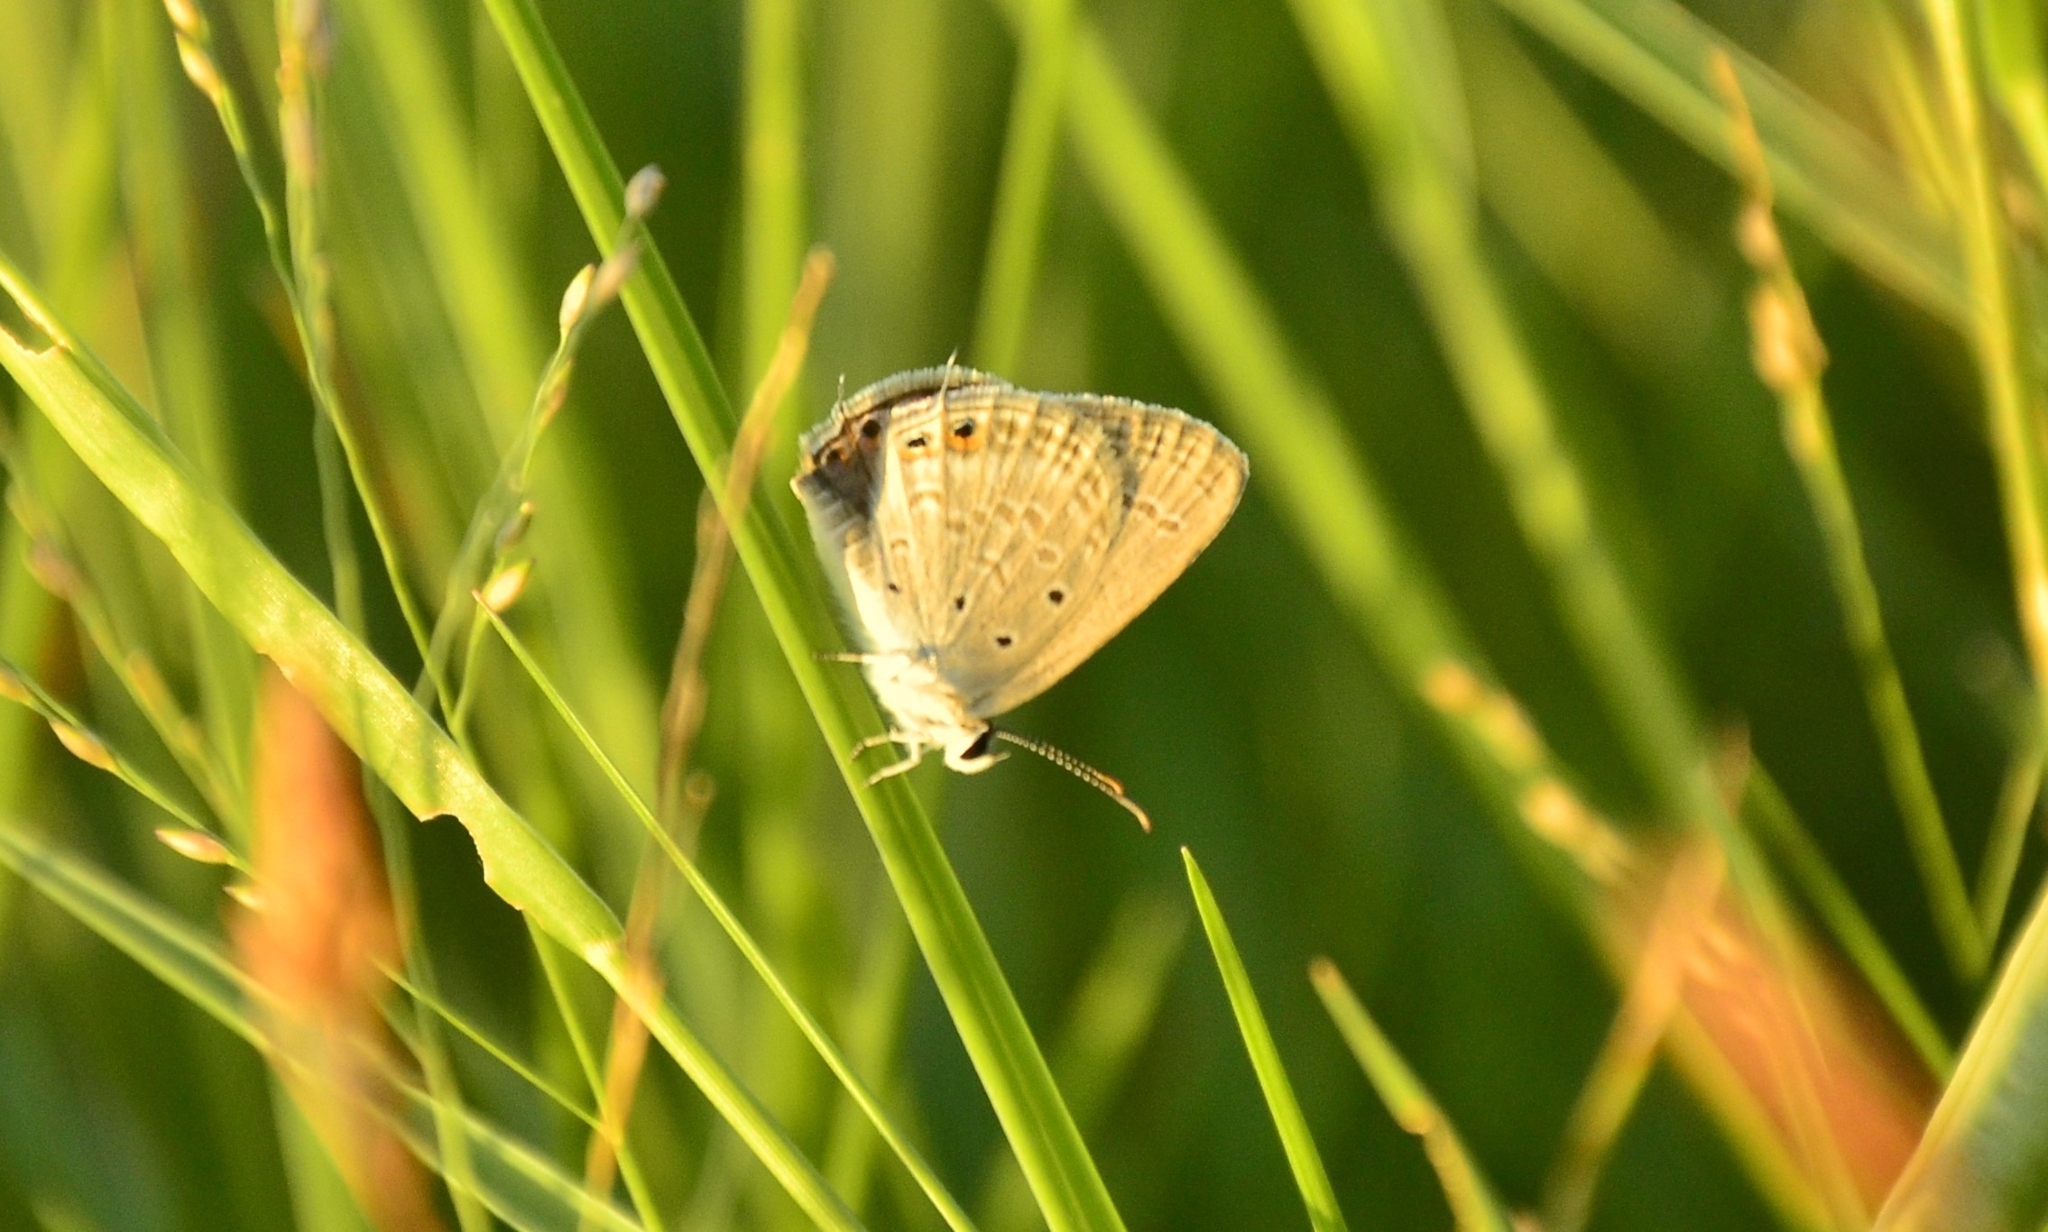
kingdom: Animalia
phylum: Arthropoda
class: Insecta
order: Lepidoptera
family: Lycaenidae
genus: Euchrysops
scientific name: Euchrysops cnejus
